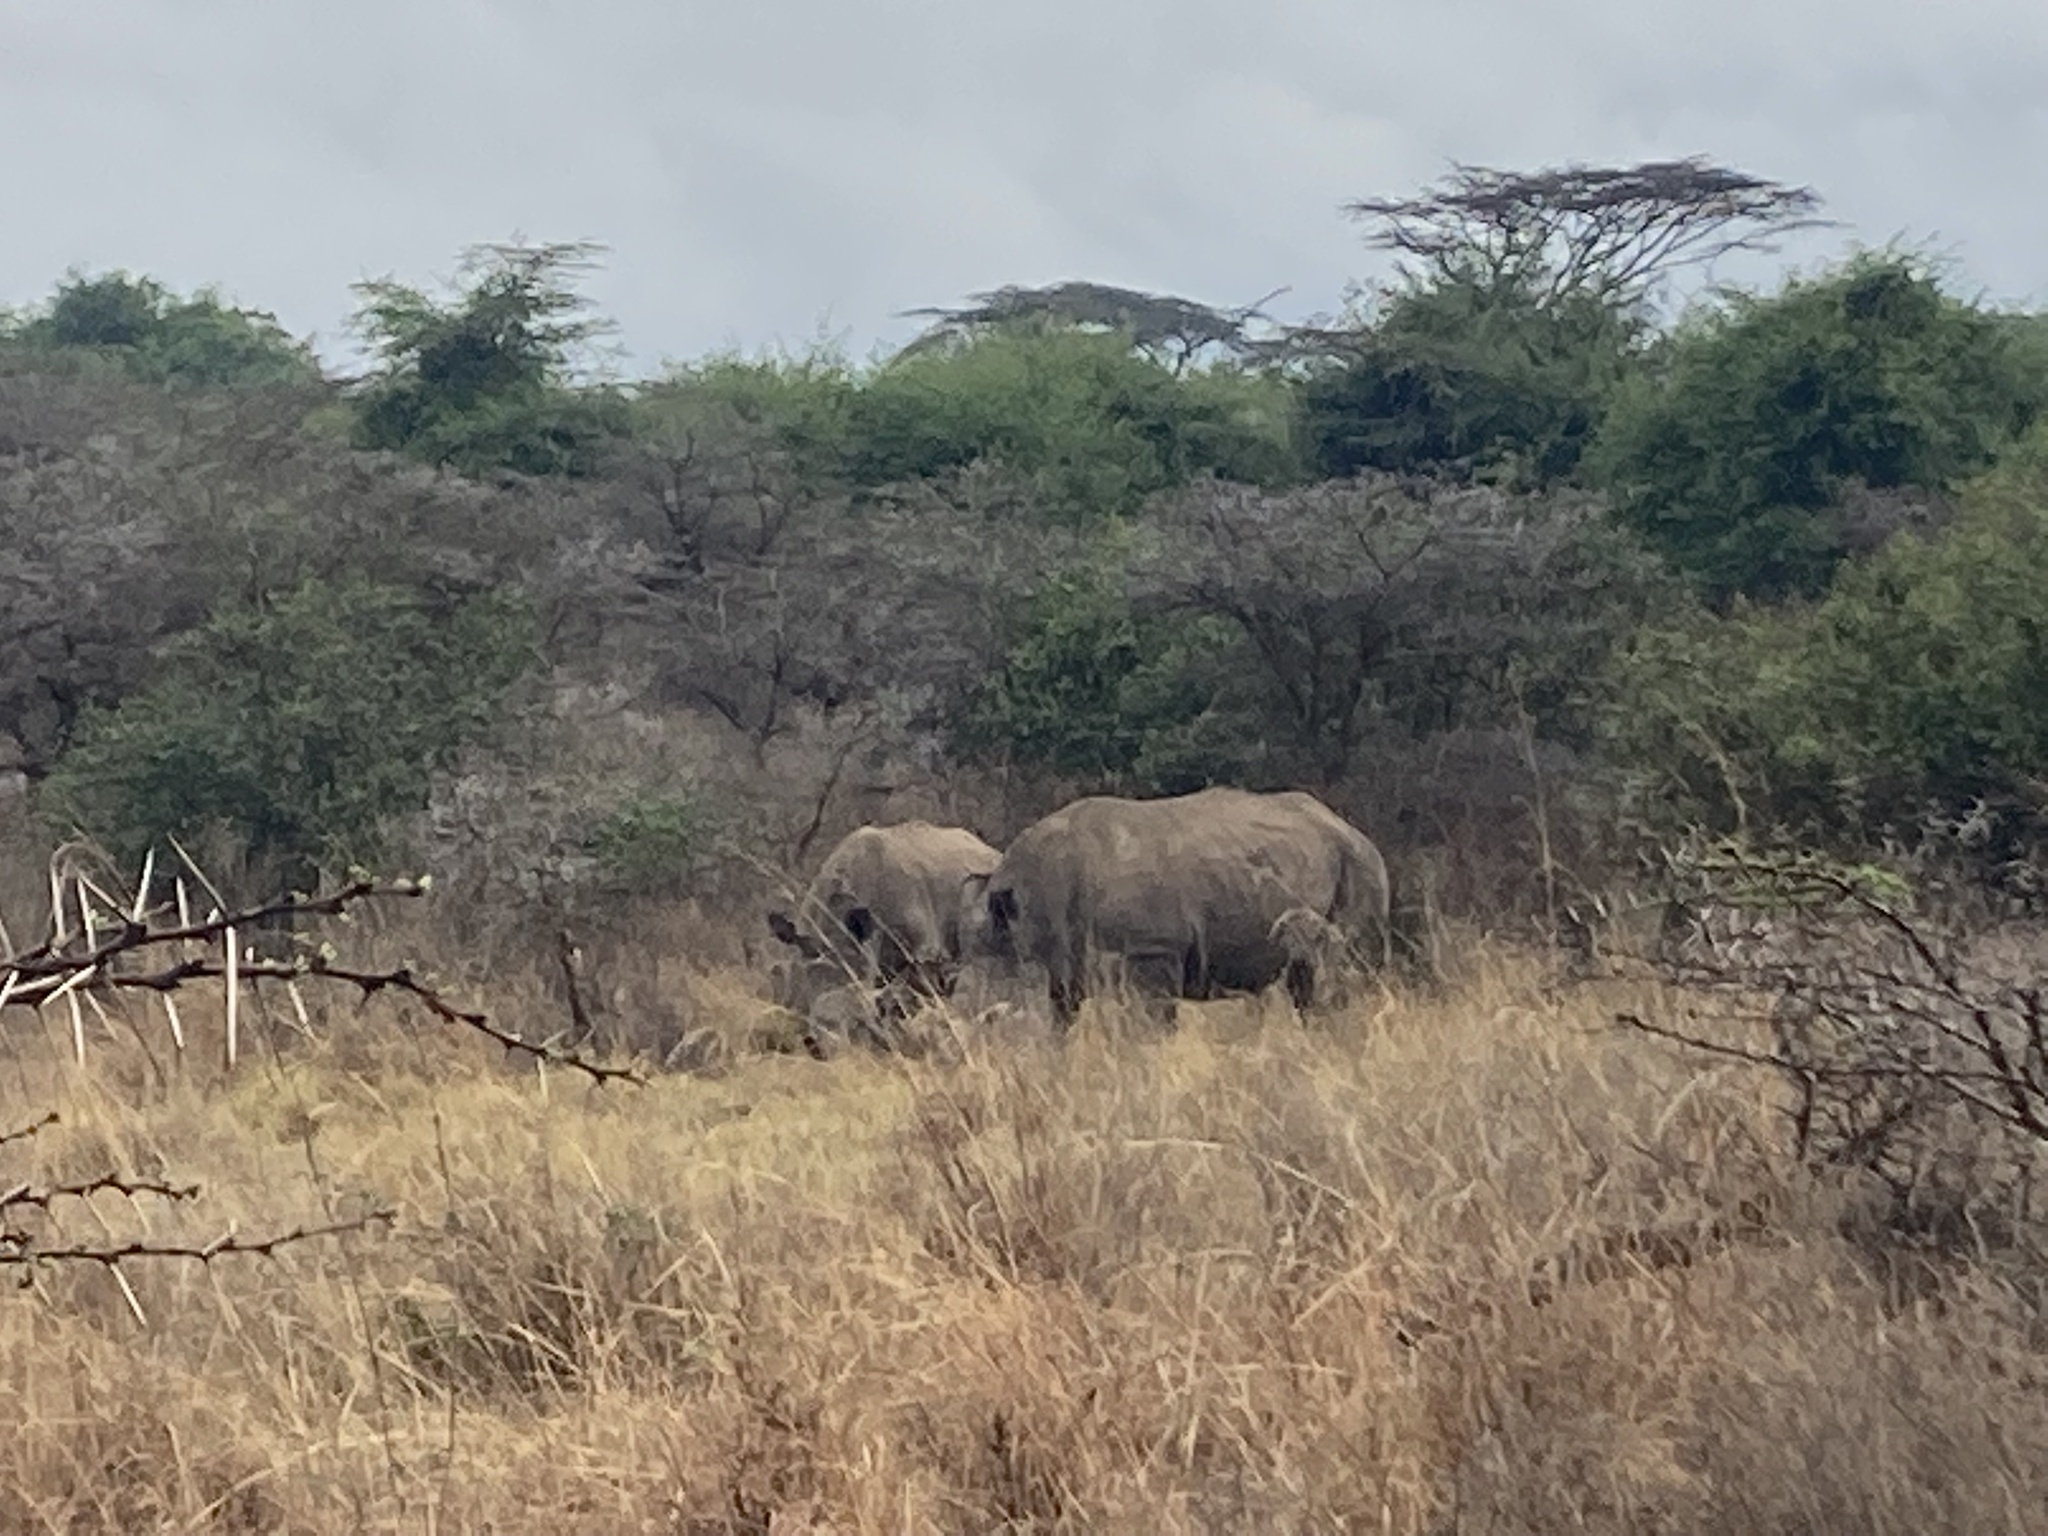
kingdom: Animalia
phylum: Chordata
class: Mammalia
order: Perissodactyla
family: Rhinocerotidae
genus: Ceratotherium
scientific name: Ceratotherium simum
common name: White rhinoceros
